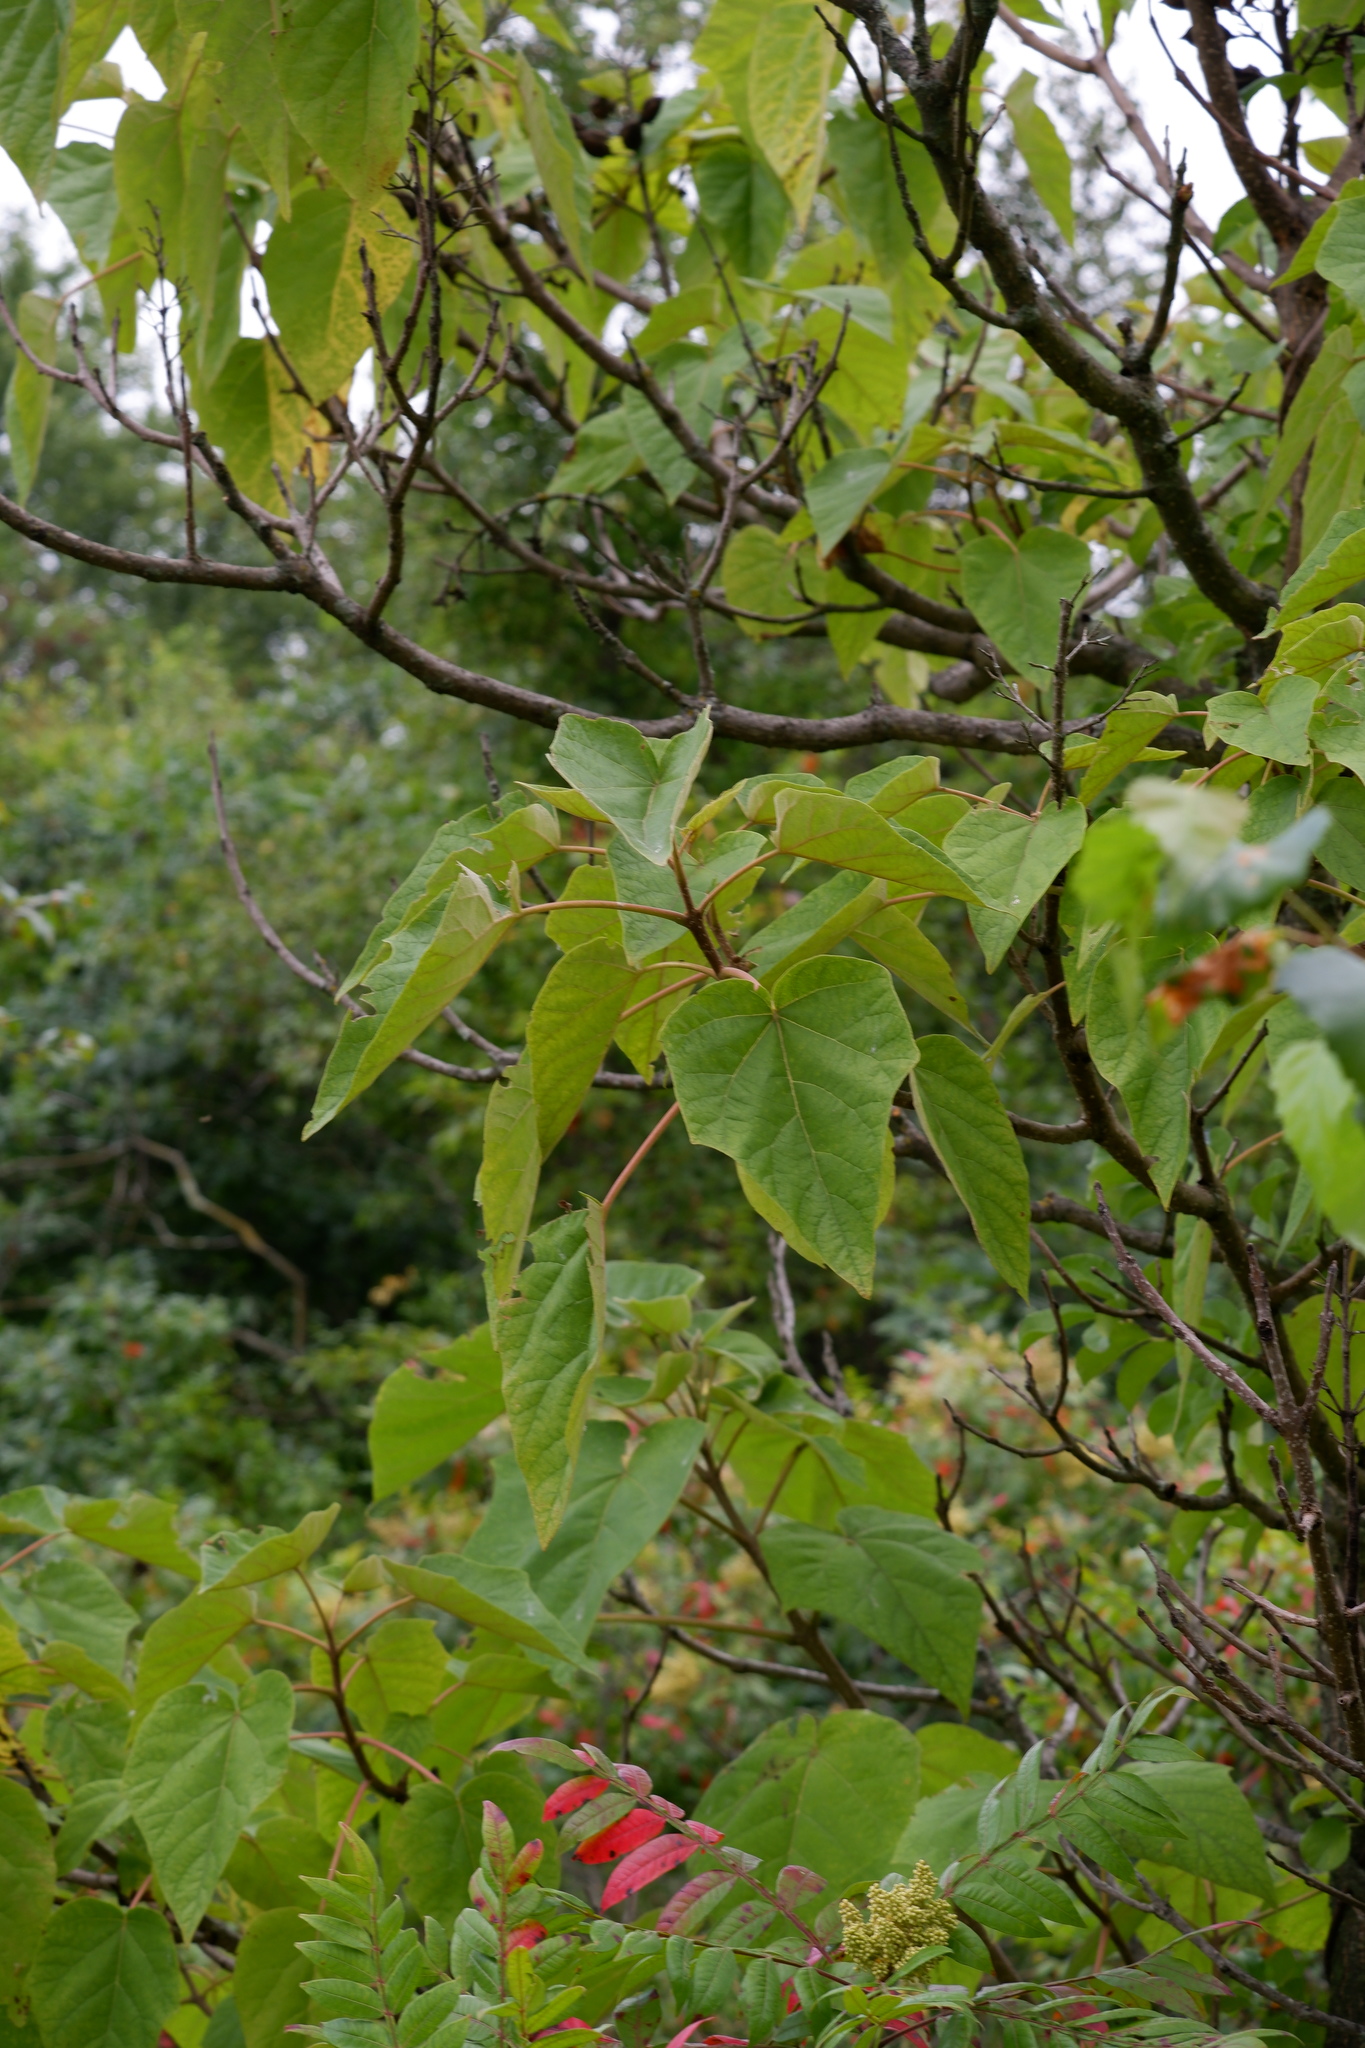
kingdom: Plantae
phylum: Tracheophyta
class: Magnoliopsida
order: Lamiales
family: Paulowniaceae
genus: Paulownia
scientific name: Paulownia tomentosa
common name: Foxglove-tree
